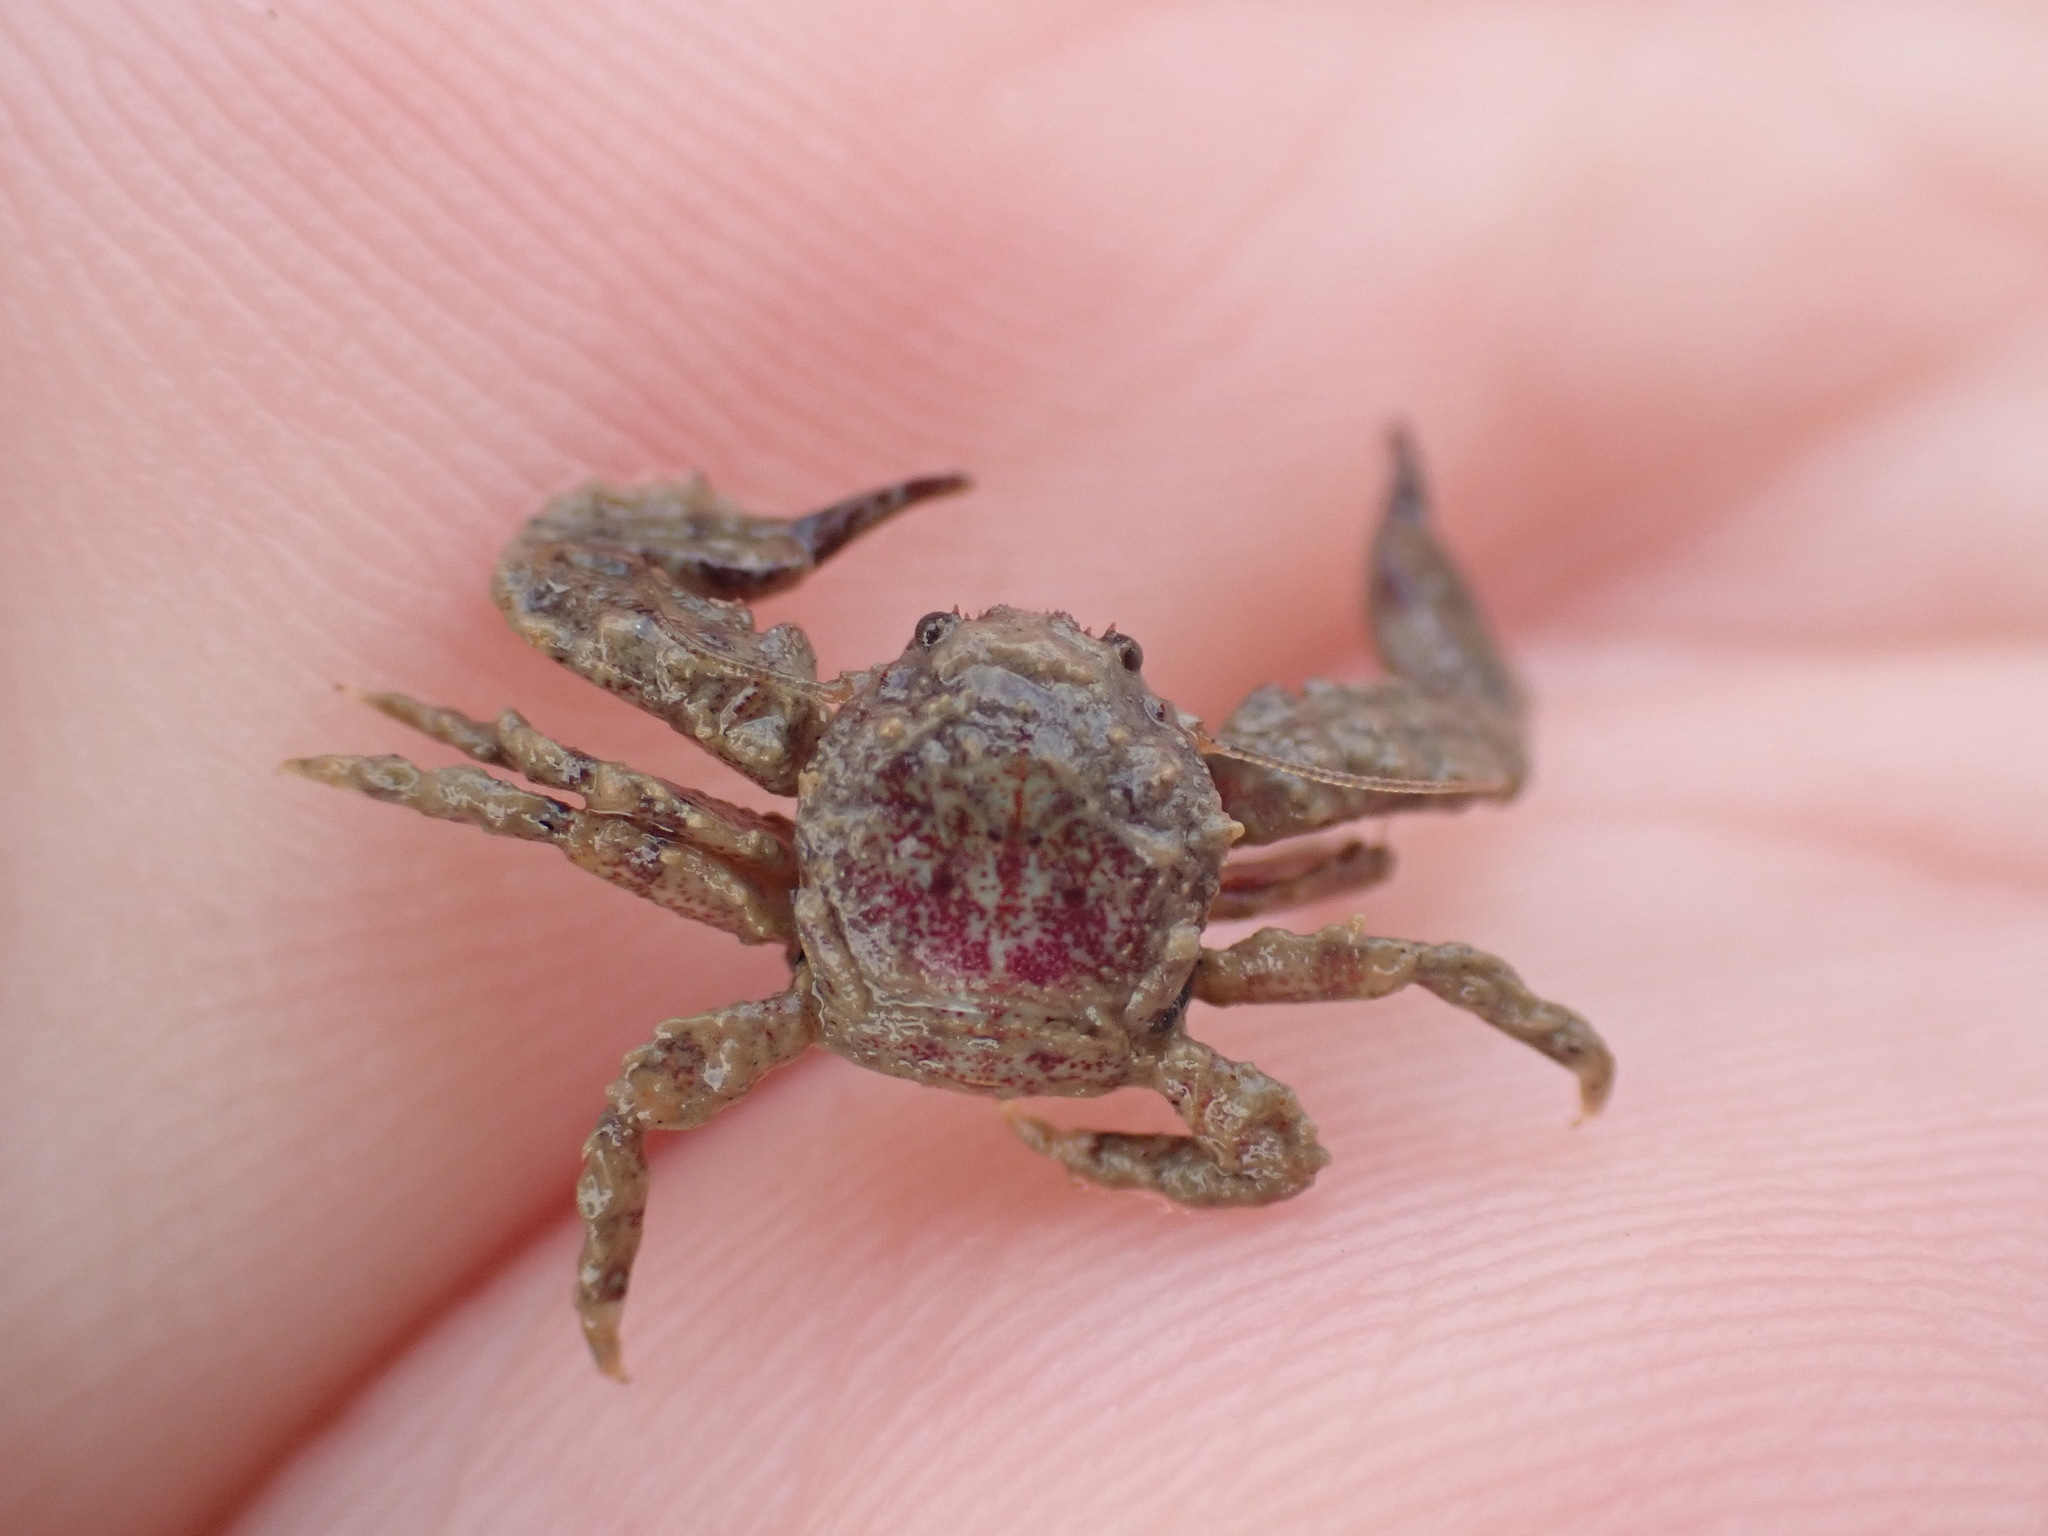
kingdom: Animalia
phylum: Arthropoda
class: Malacostraca
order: Decapoda
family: Porcellanidae
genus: Petrolisthes
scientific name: Petrolisthes novaezelandiae
